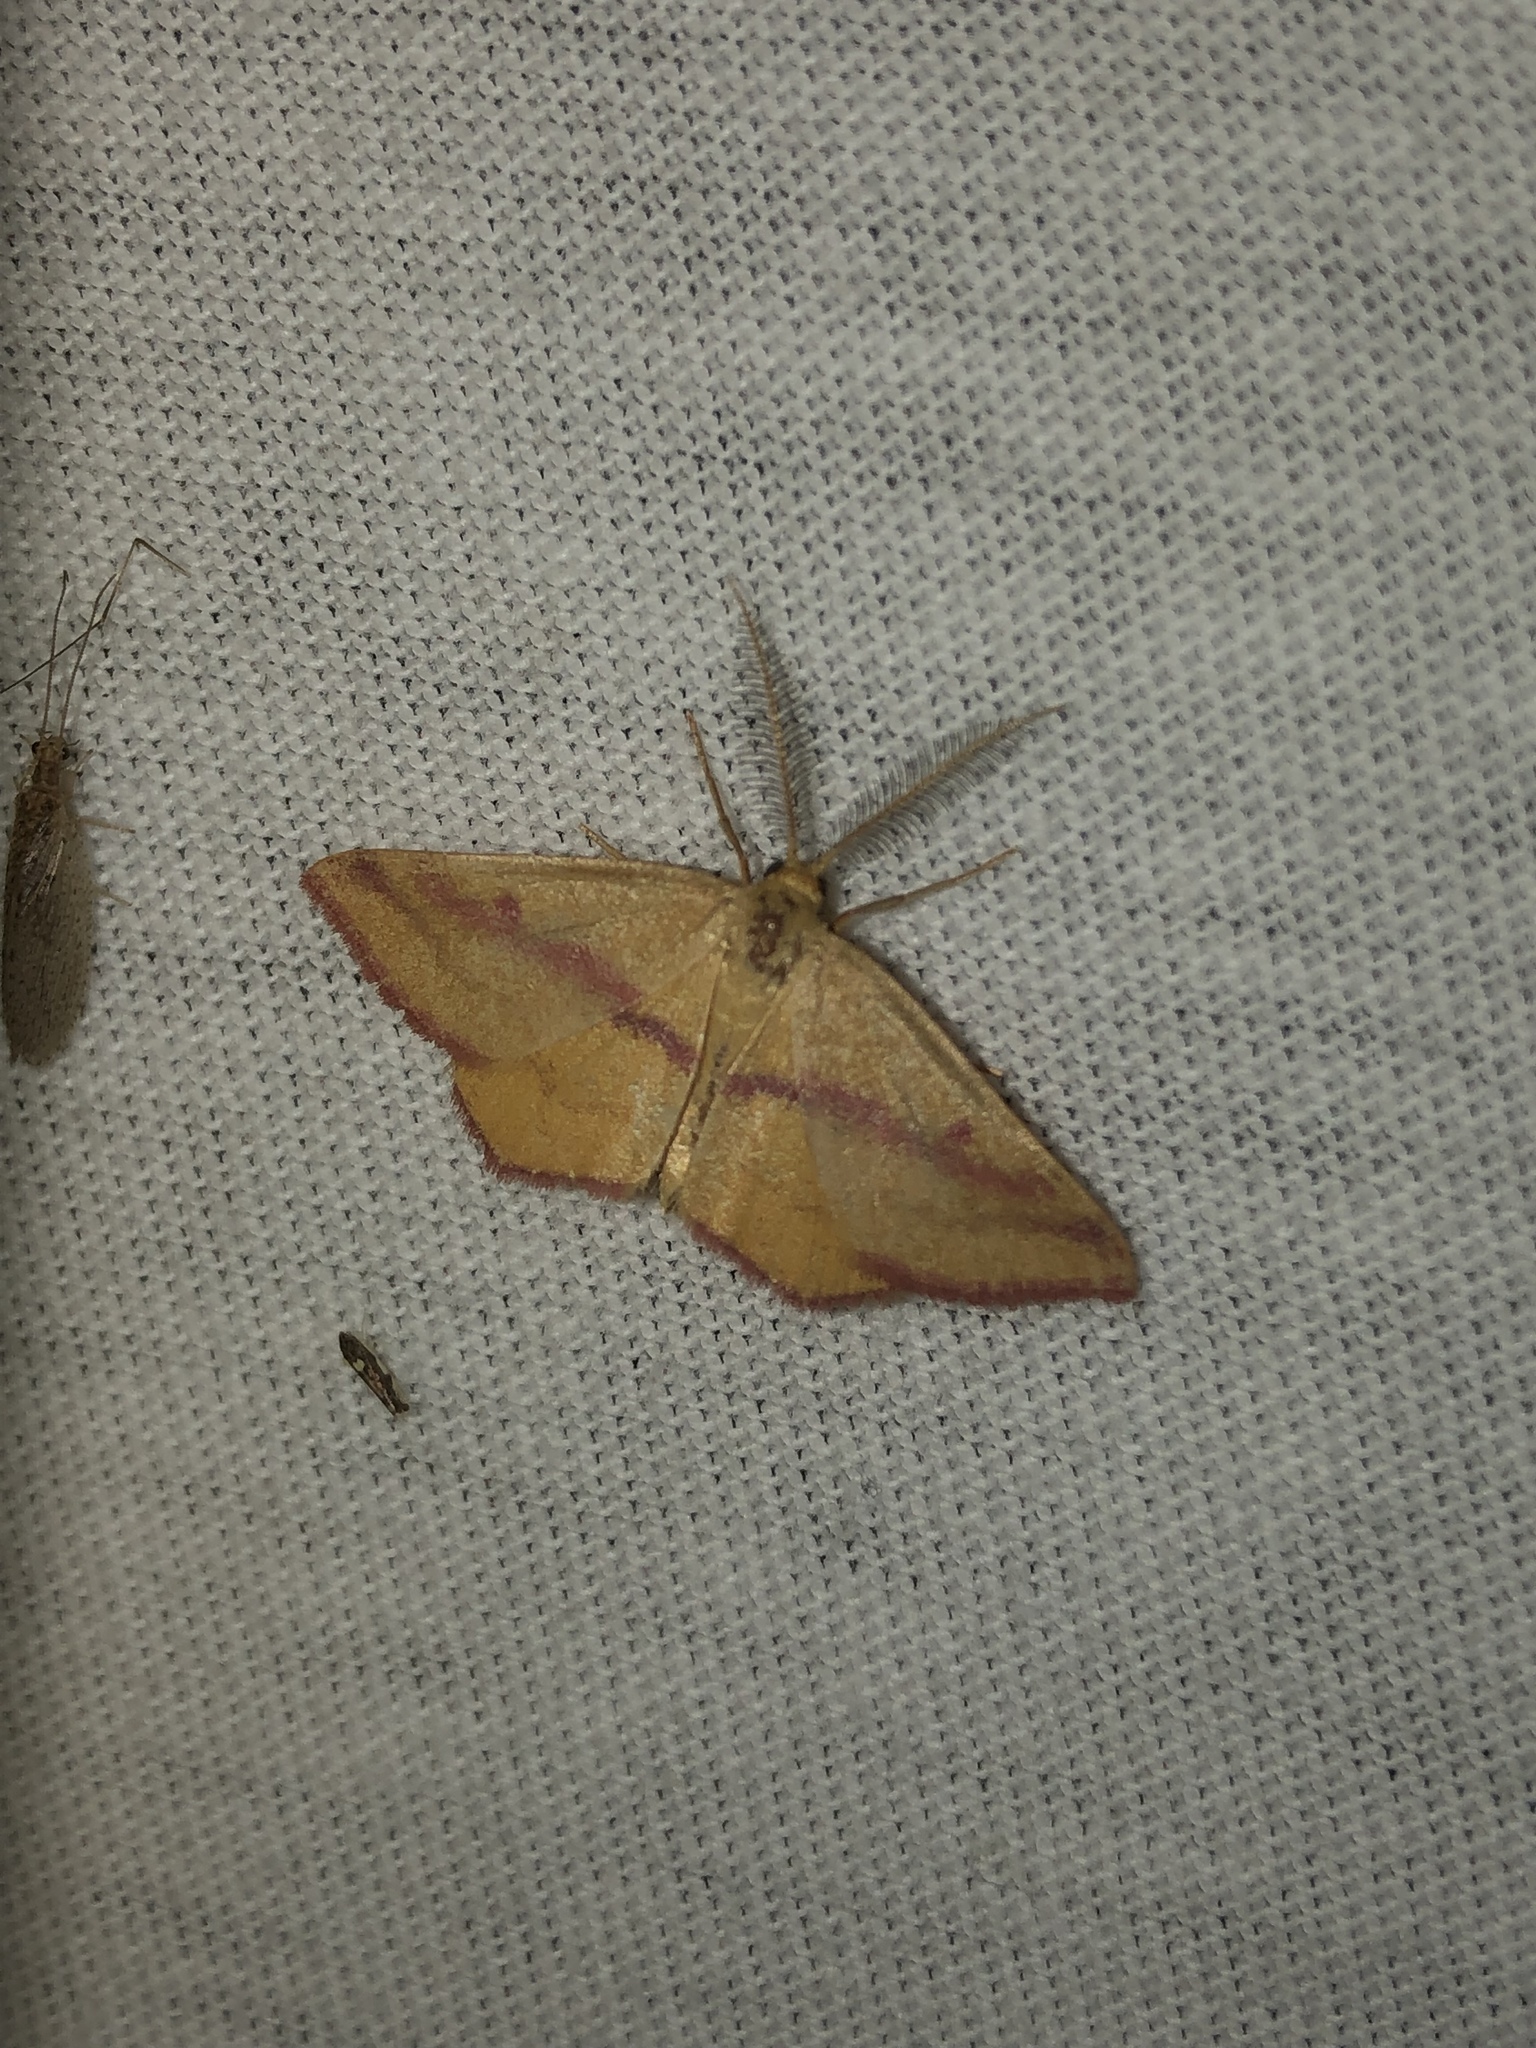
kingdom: Animalia
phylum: Arthropoda
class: Insecta
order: Lepidoptera
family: Geometridae
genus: Haematopis
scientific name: Haematopis grataria
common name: Chickweed geometer
